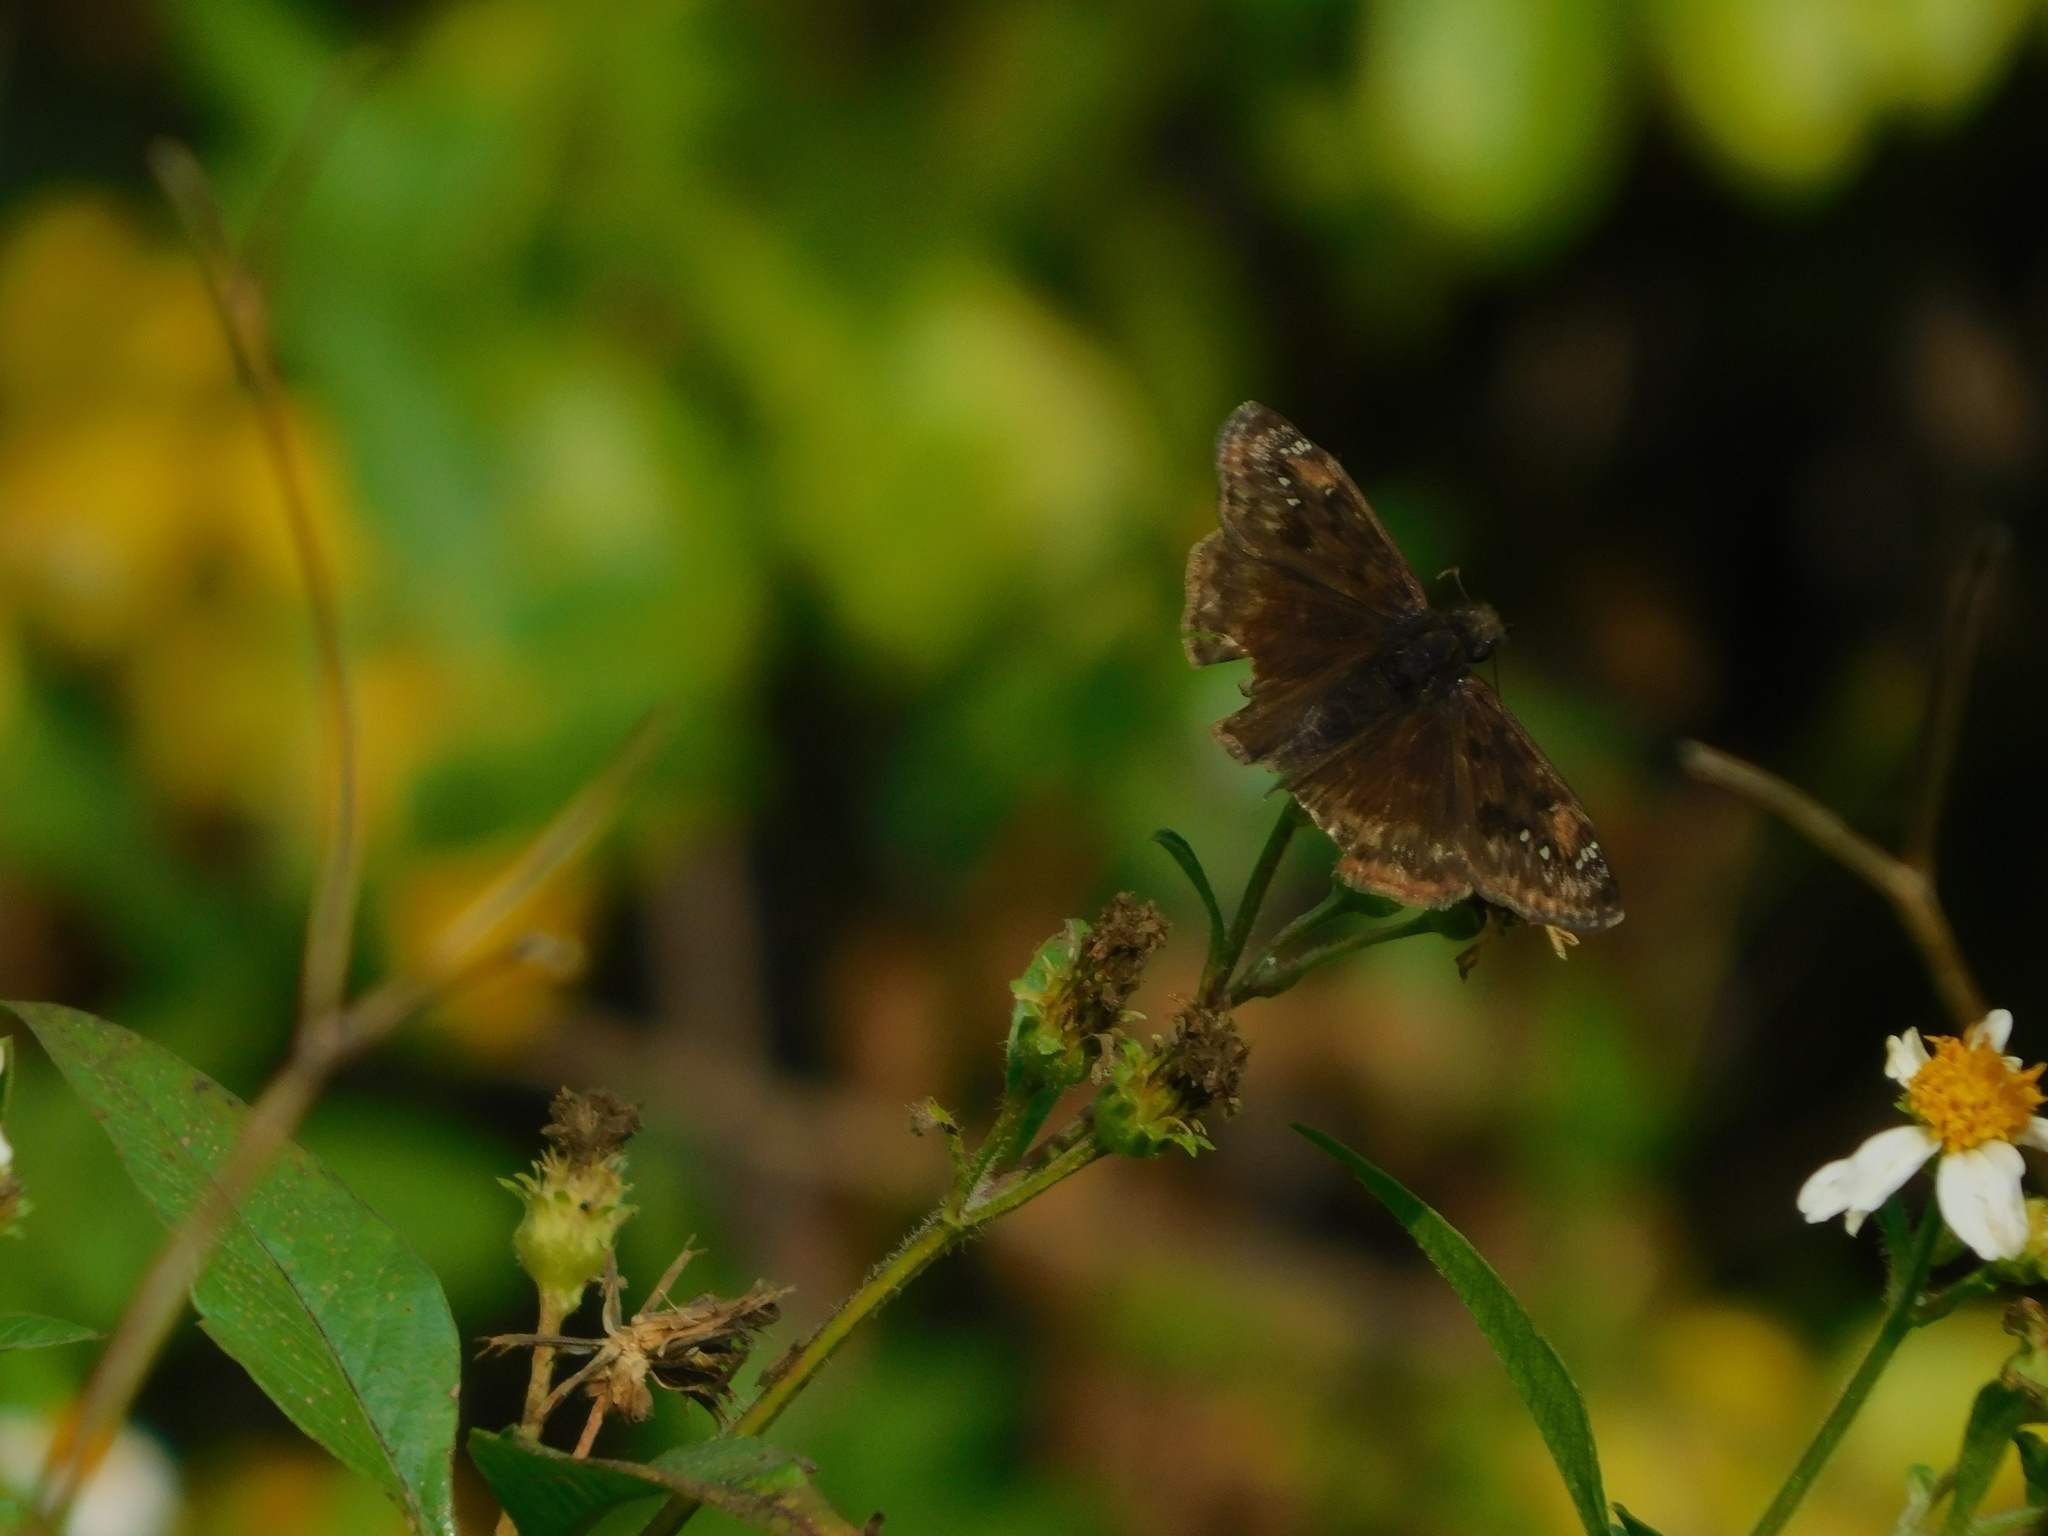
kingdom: Animalia
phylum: Arthropoda
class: Insecta
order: Lepidoptera
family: Hesperiidae
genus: Erynnis
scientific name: Erynnis zarucco
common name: Zarucco duskywing
